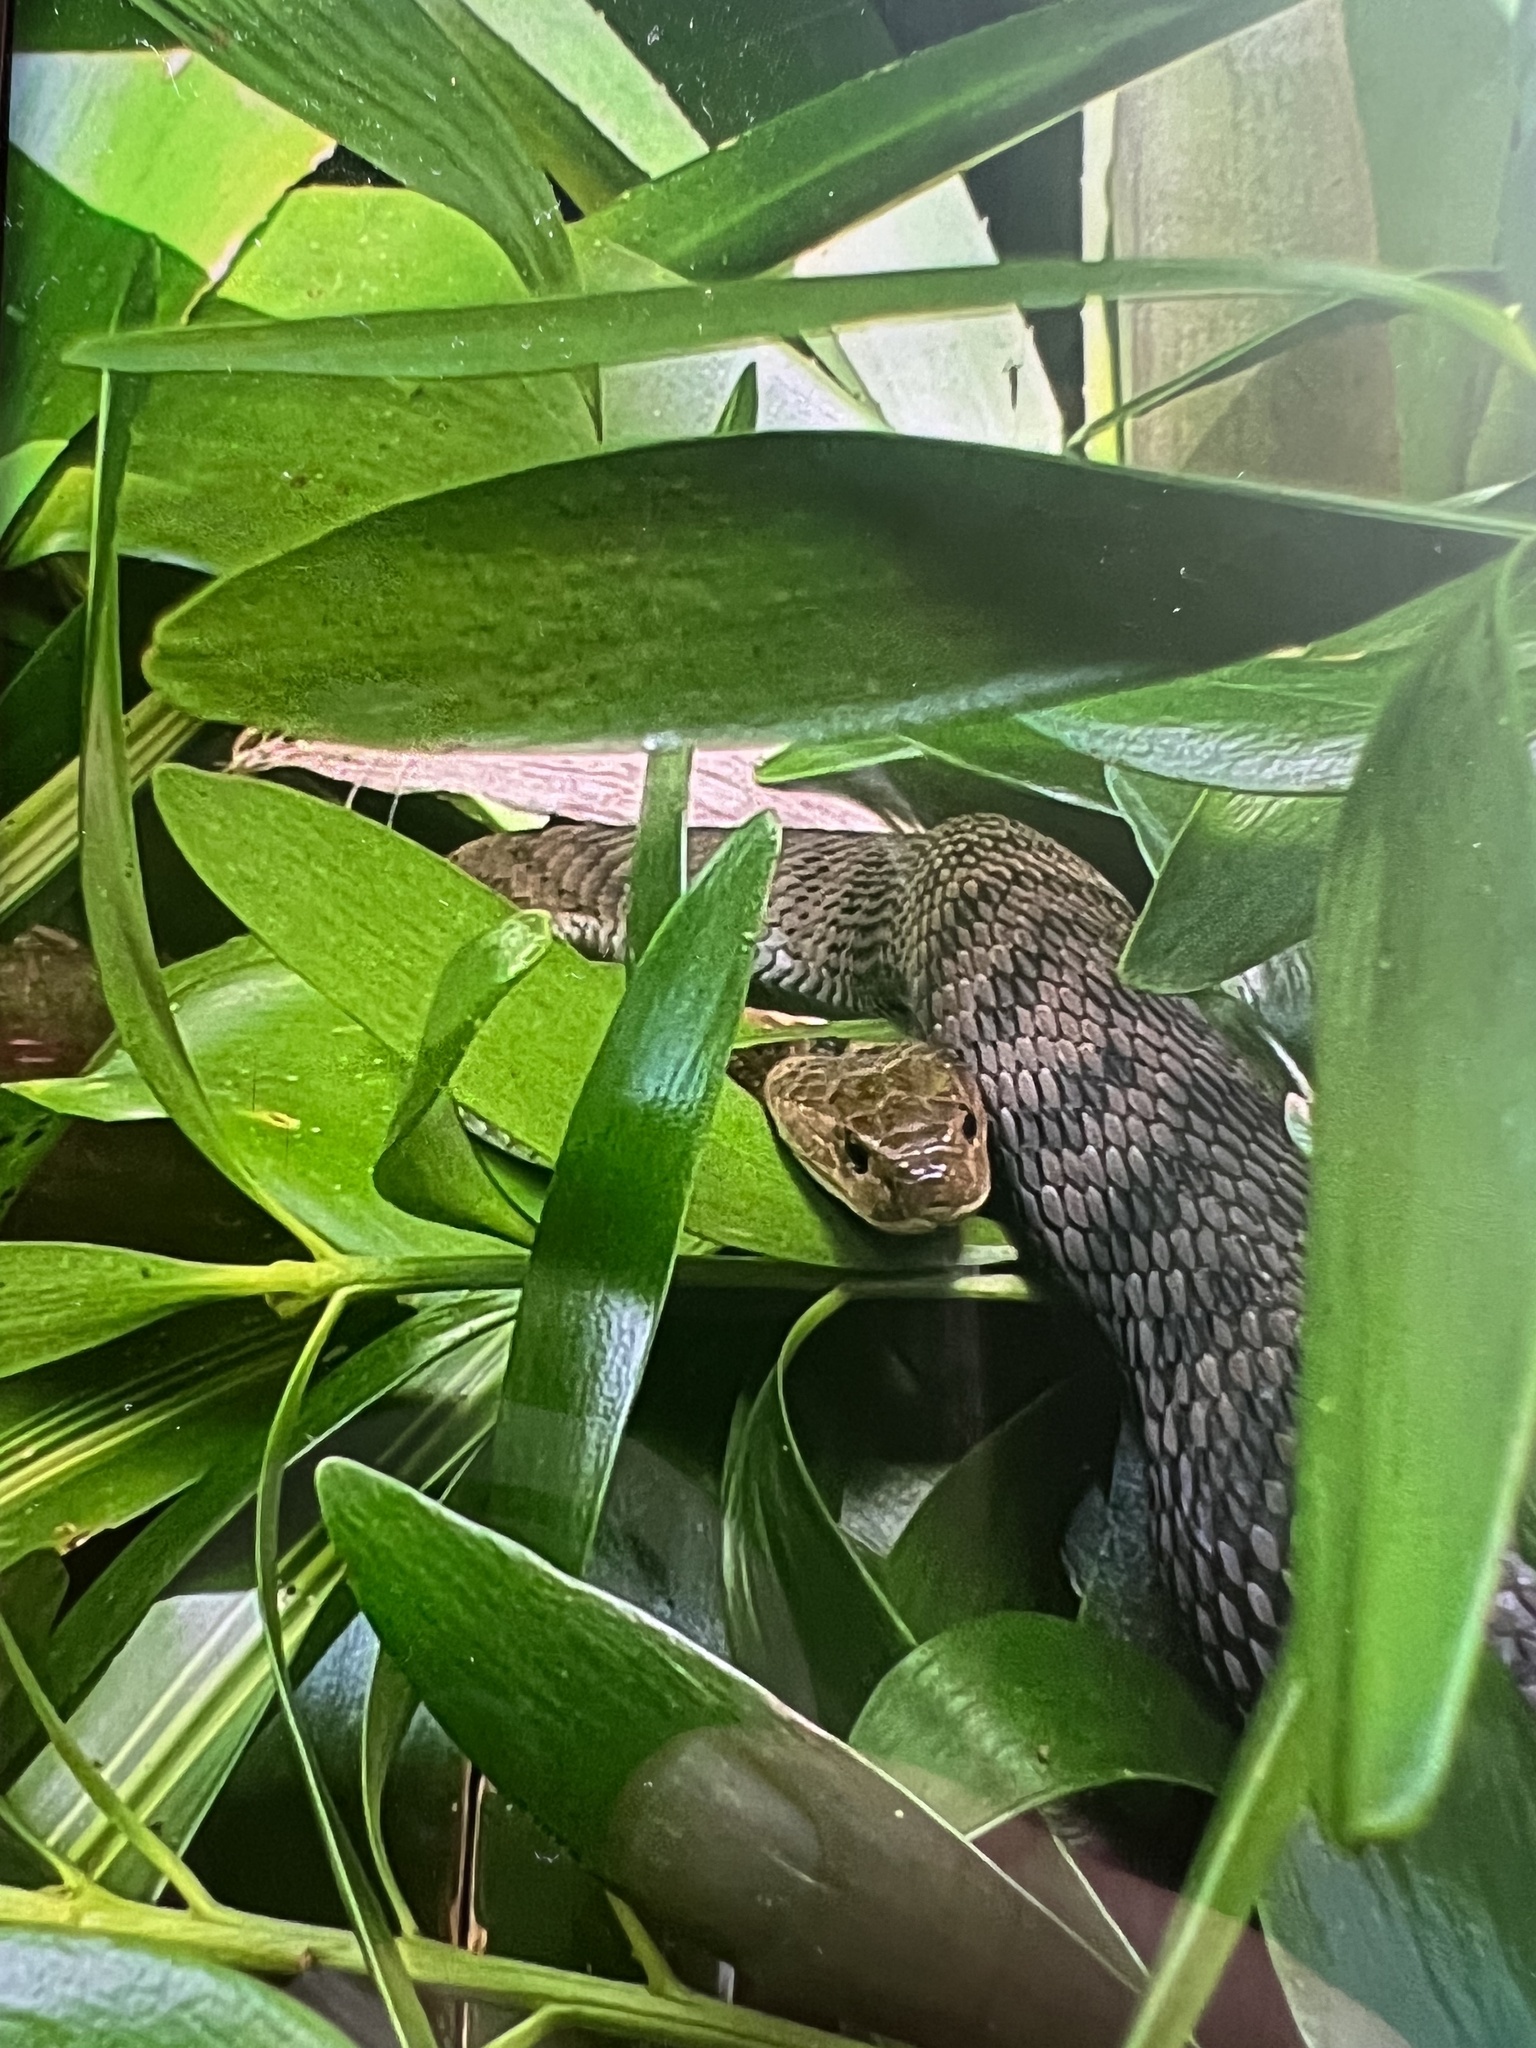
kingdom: Animalia
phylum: Chordata
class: Squamata
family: Elapidae
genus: Tropidechis
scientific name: Tropidechis carinatus
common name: Clarence river snake
